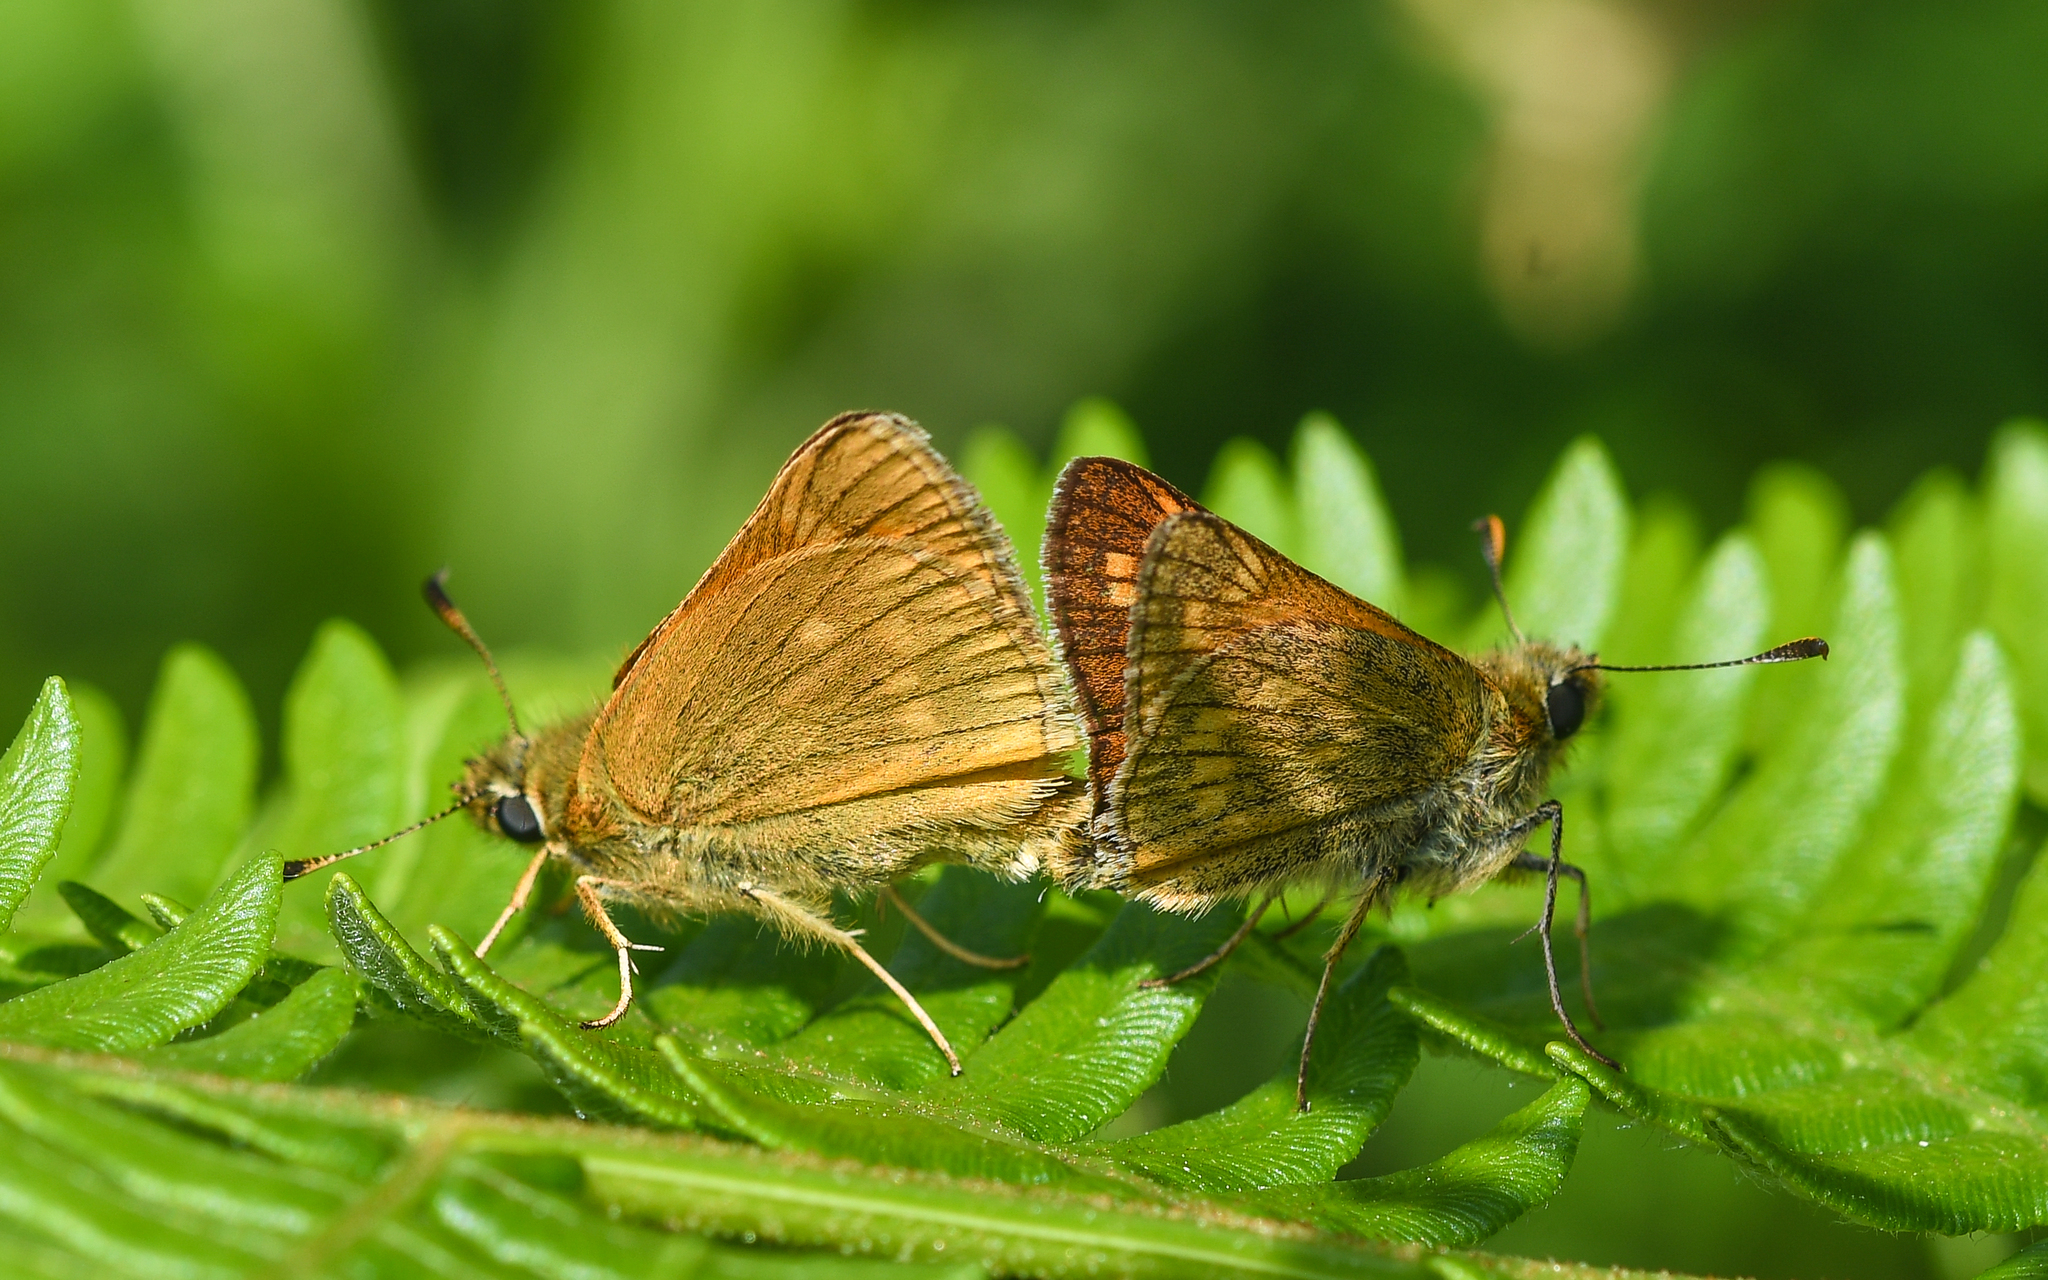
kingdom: Animalia
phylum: Arthropoda
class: Insecta
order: Lepidoptera
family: Hesperiidae
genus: Ochlodes
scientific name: Ochlodes venata
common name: Large skipper
